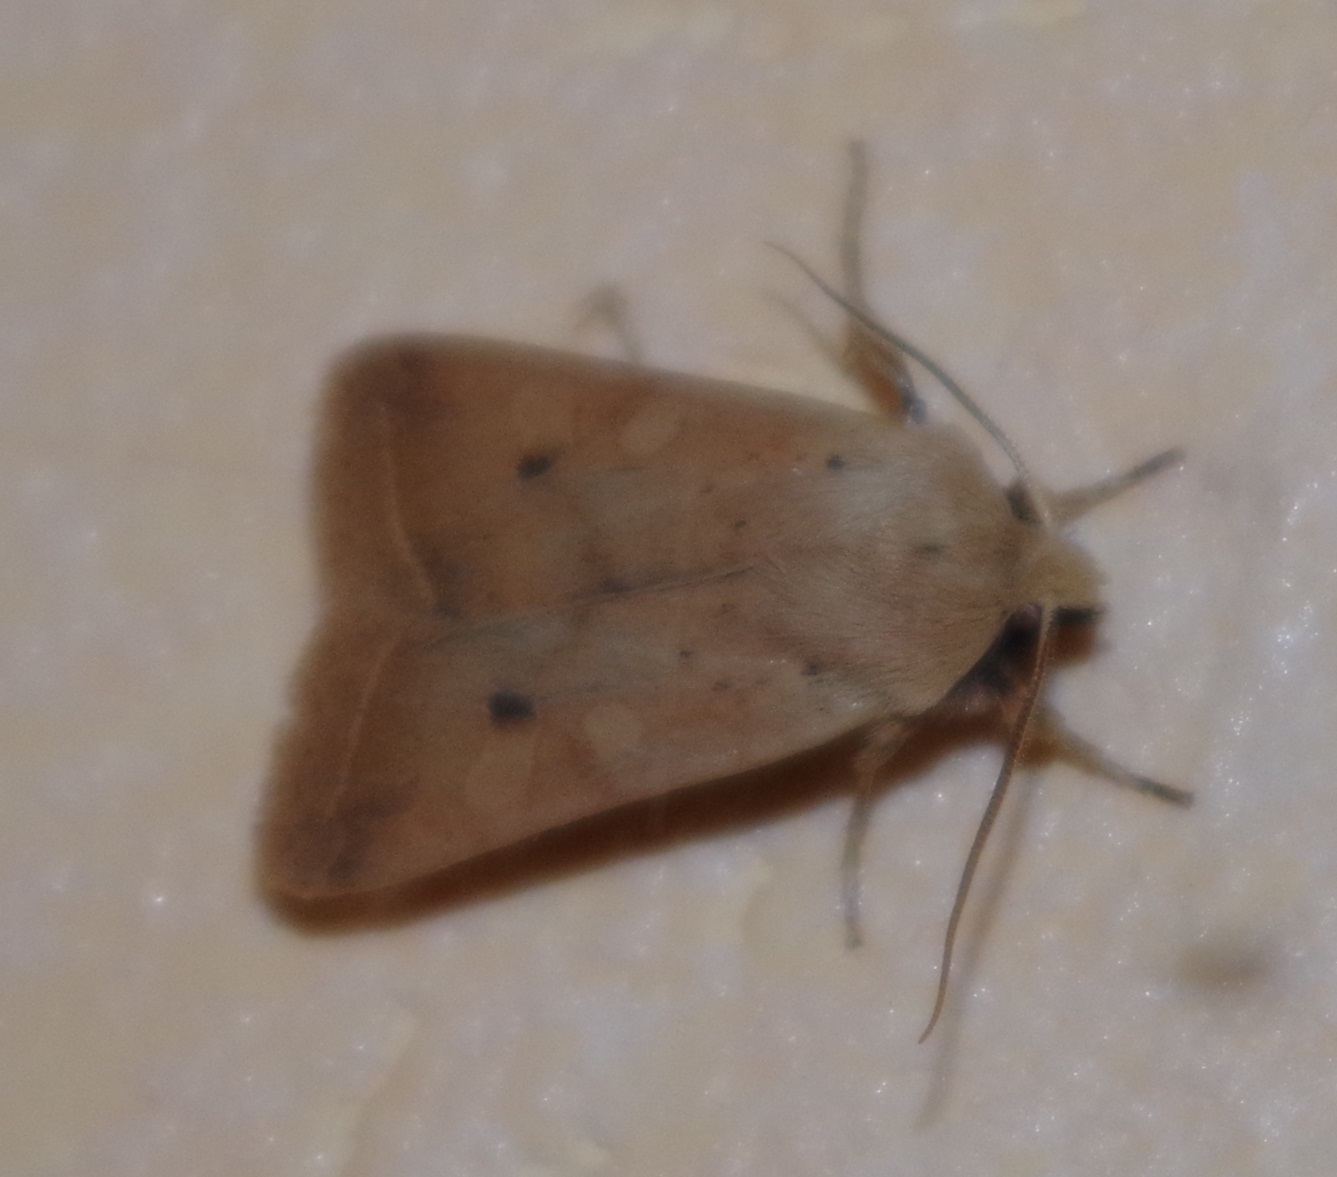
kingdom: Animalia
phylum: Arthropoda
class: Insecta
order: Lepidoptera
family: Noctuidae
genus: Agrochola
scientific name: Agrochola macilenta
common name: Yellow-line quaker
